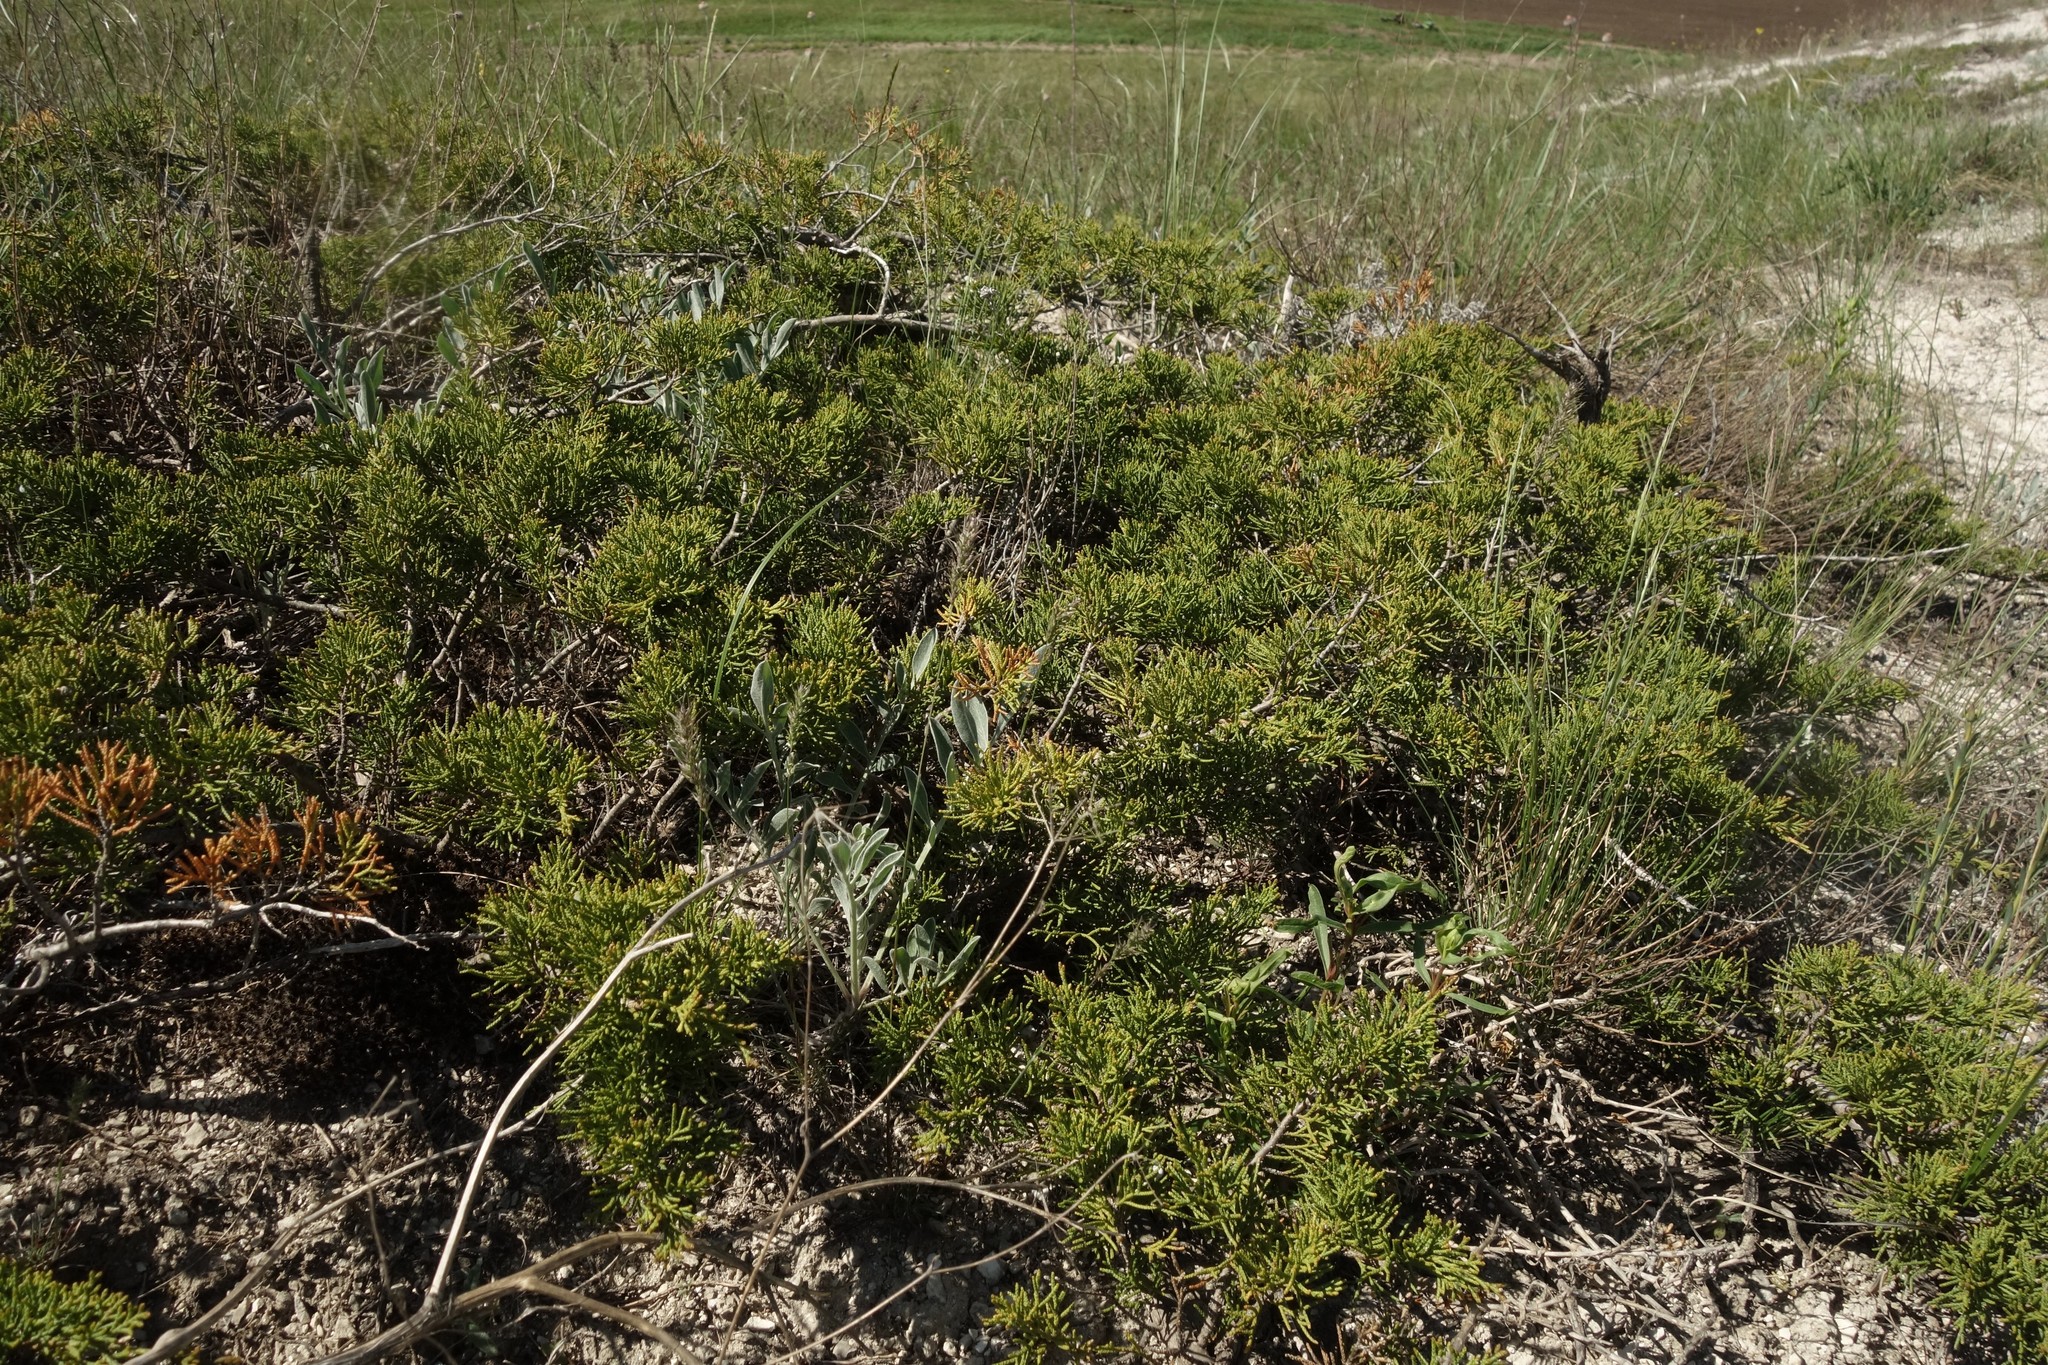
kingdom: Plantae
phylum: Tracheophyta
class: Pinopsida
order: Pinales
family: Cupressaceae
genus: Juniperus
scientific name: Juniperus sabina
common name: Savin
